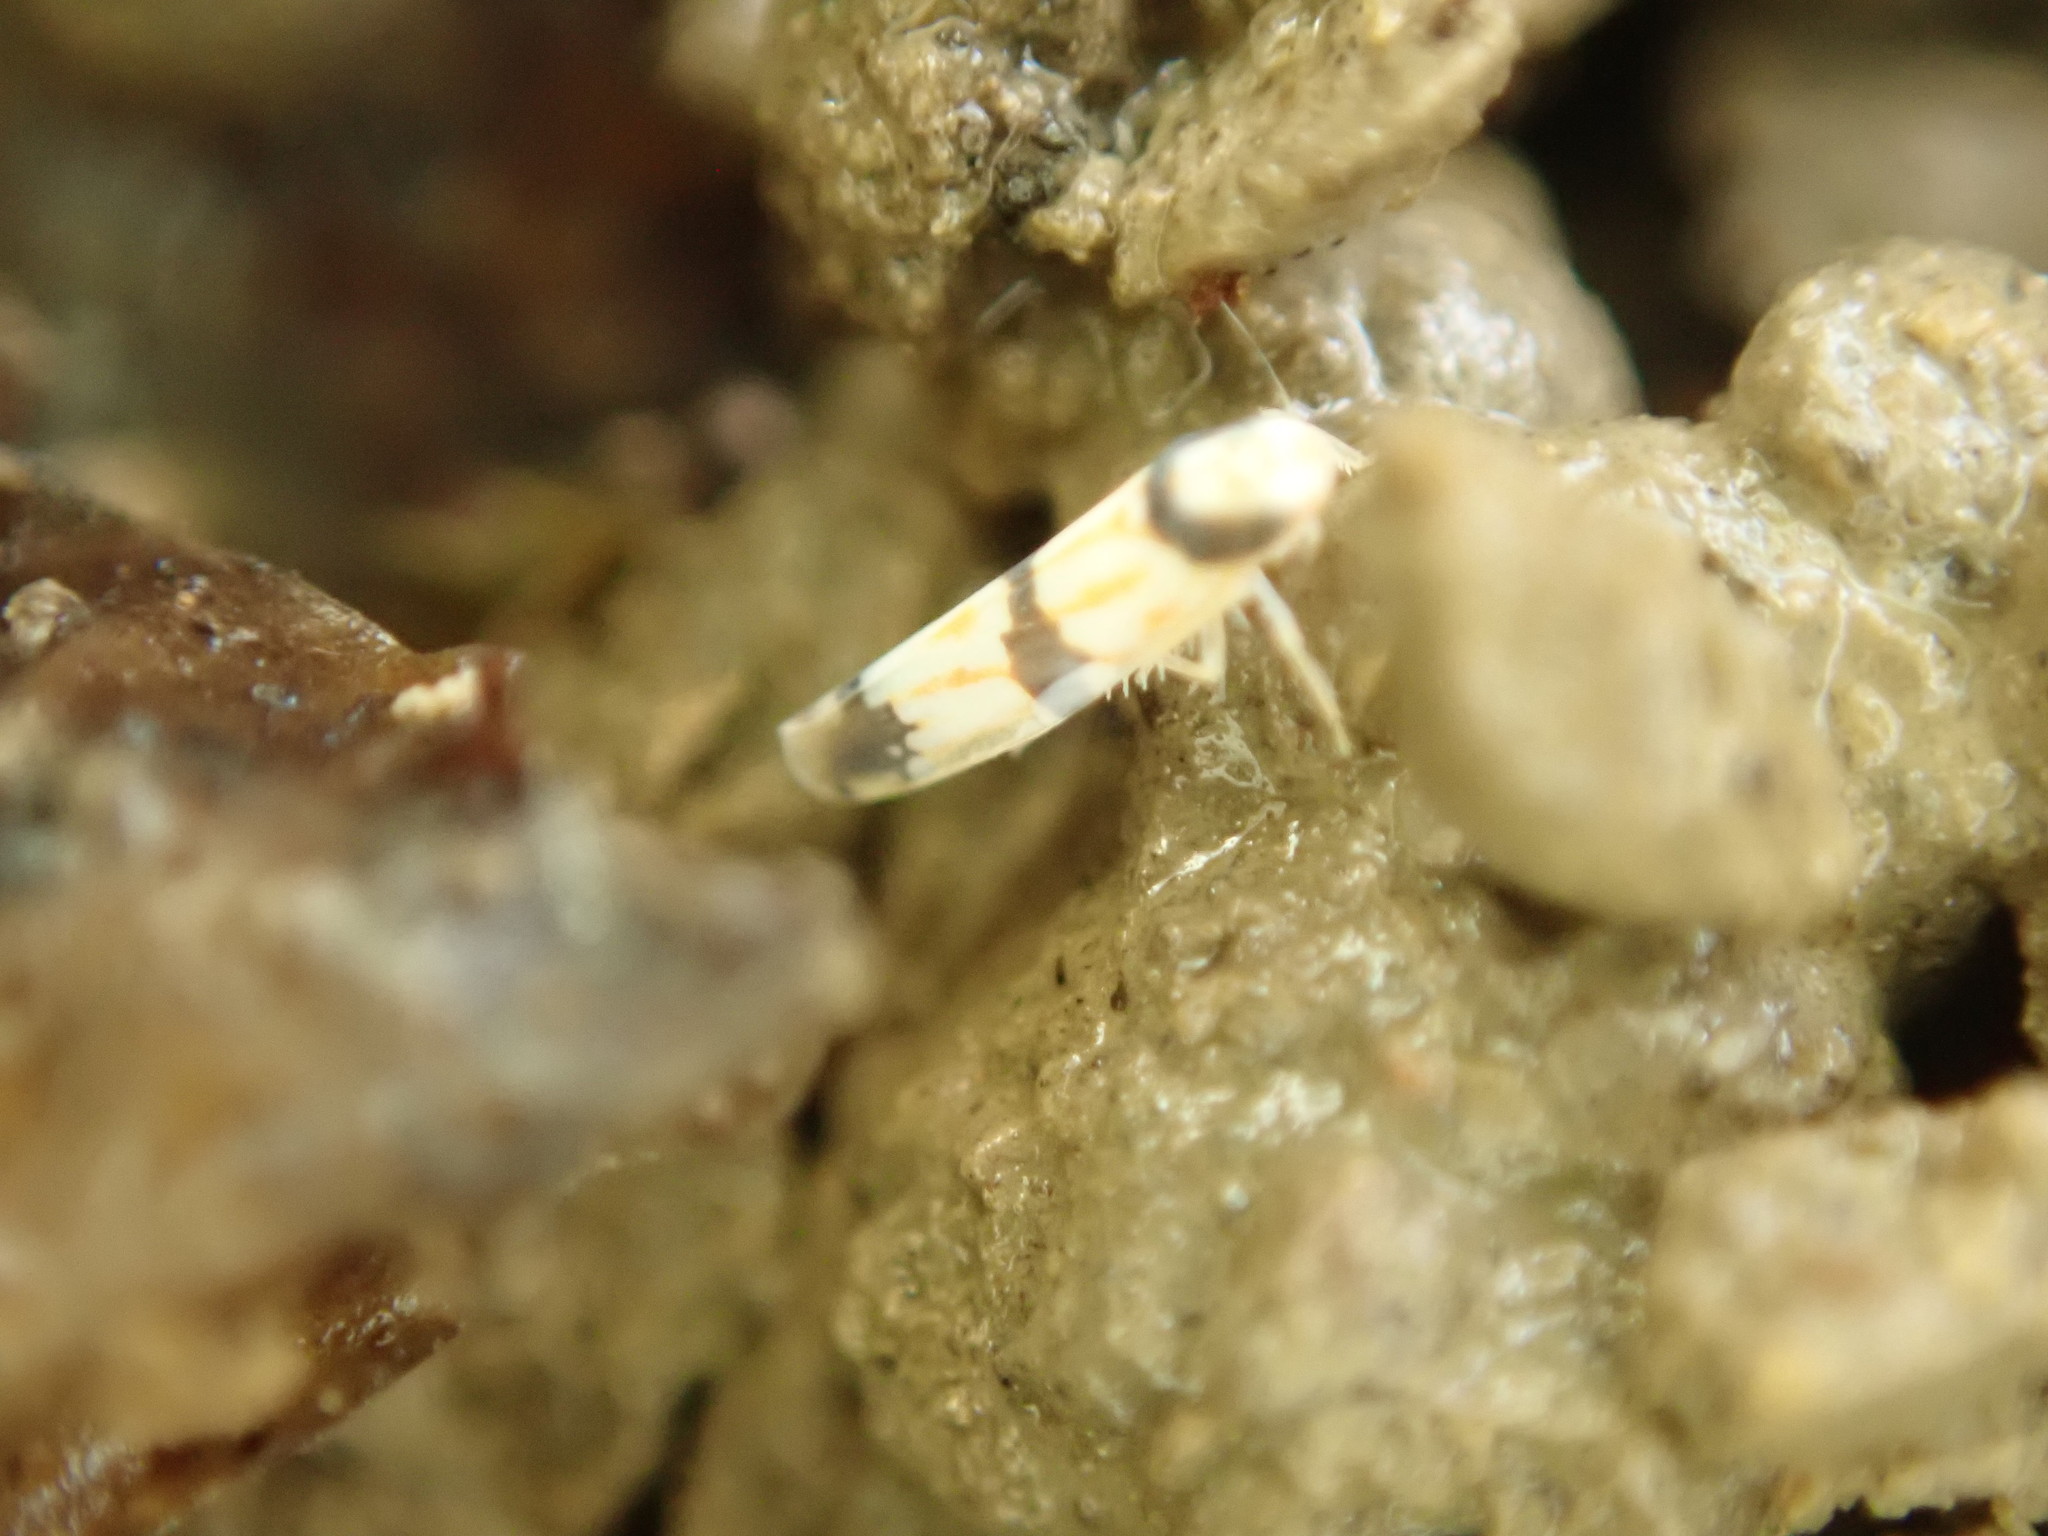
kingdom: Animalia
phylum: Arthropoda
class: Insecta
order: Hemiptera
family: Cicadellidae
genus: Erythroneura
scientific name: Erythroneura calycula
